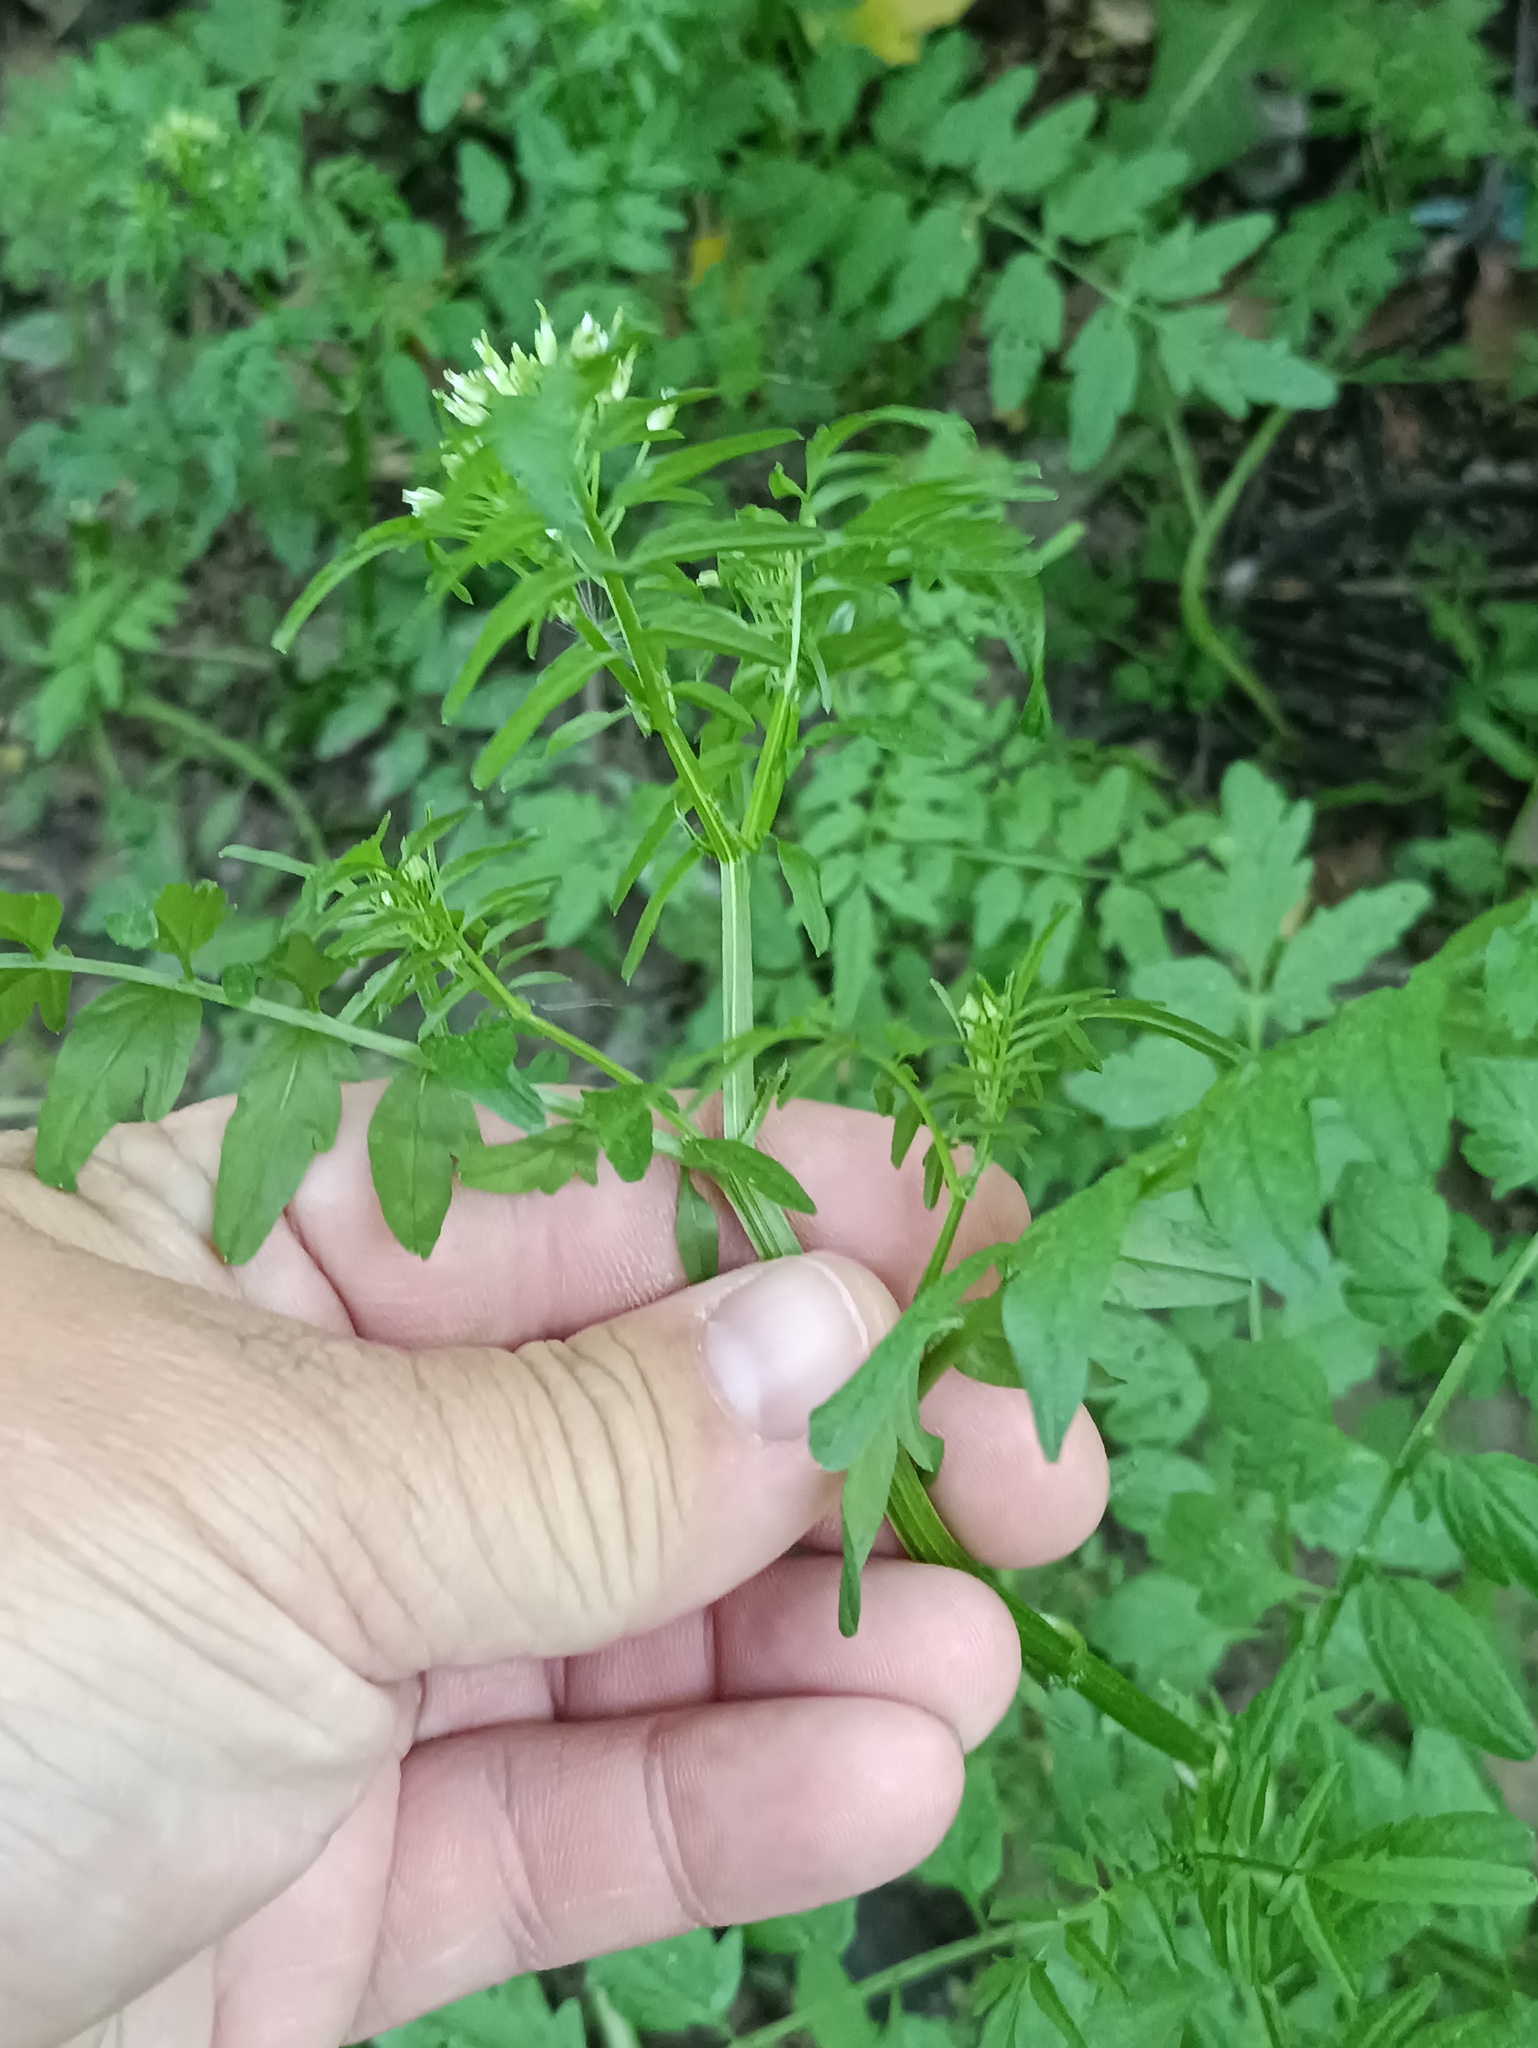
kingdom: Plantae
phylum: Tracheophyta
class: Magnoliopsida
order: Brassicales
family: Brassicaceae
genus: Cardamine
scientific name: Cardamine impatiens
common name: Narrow-leaved bitter-cress
